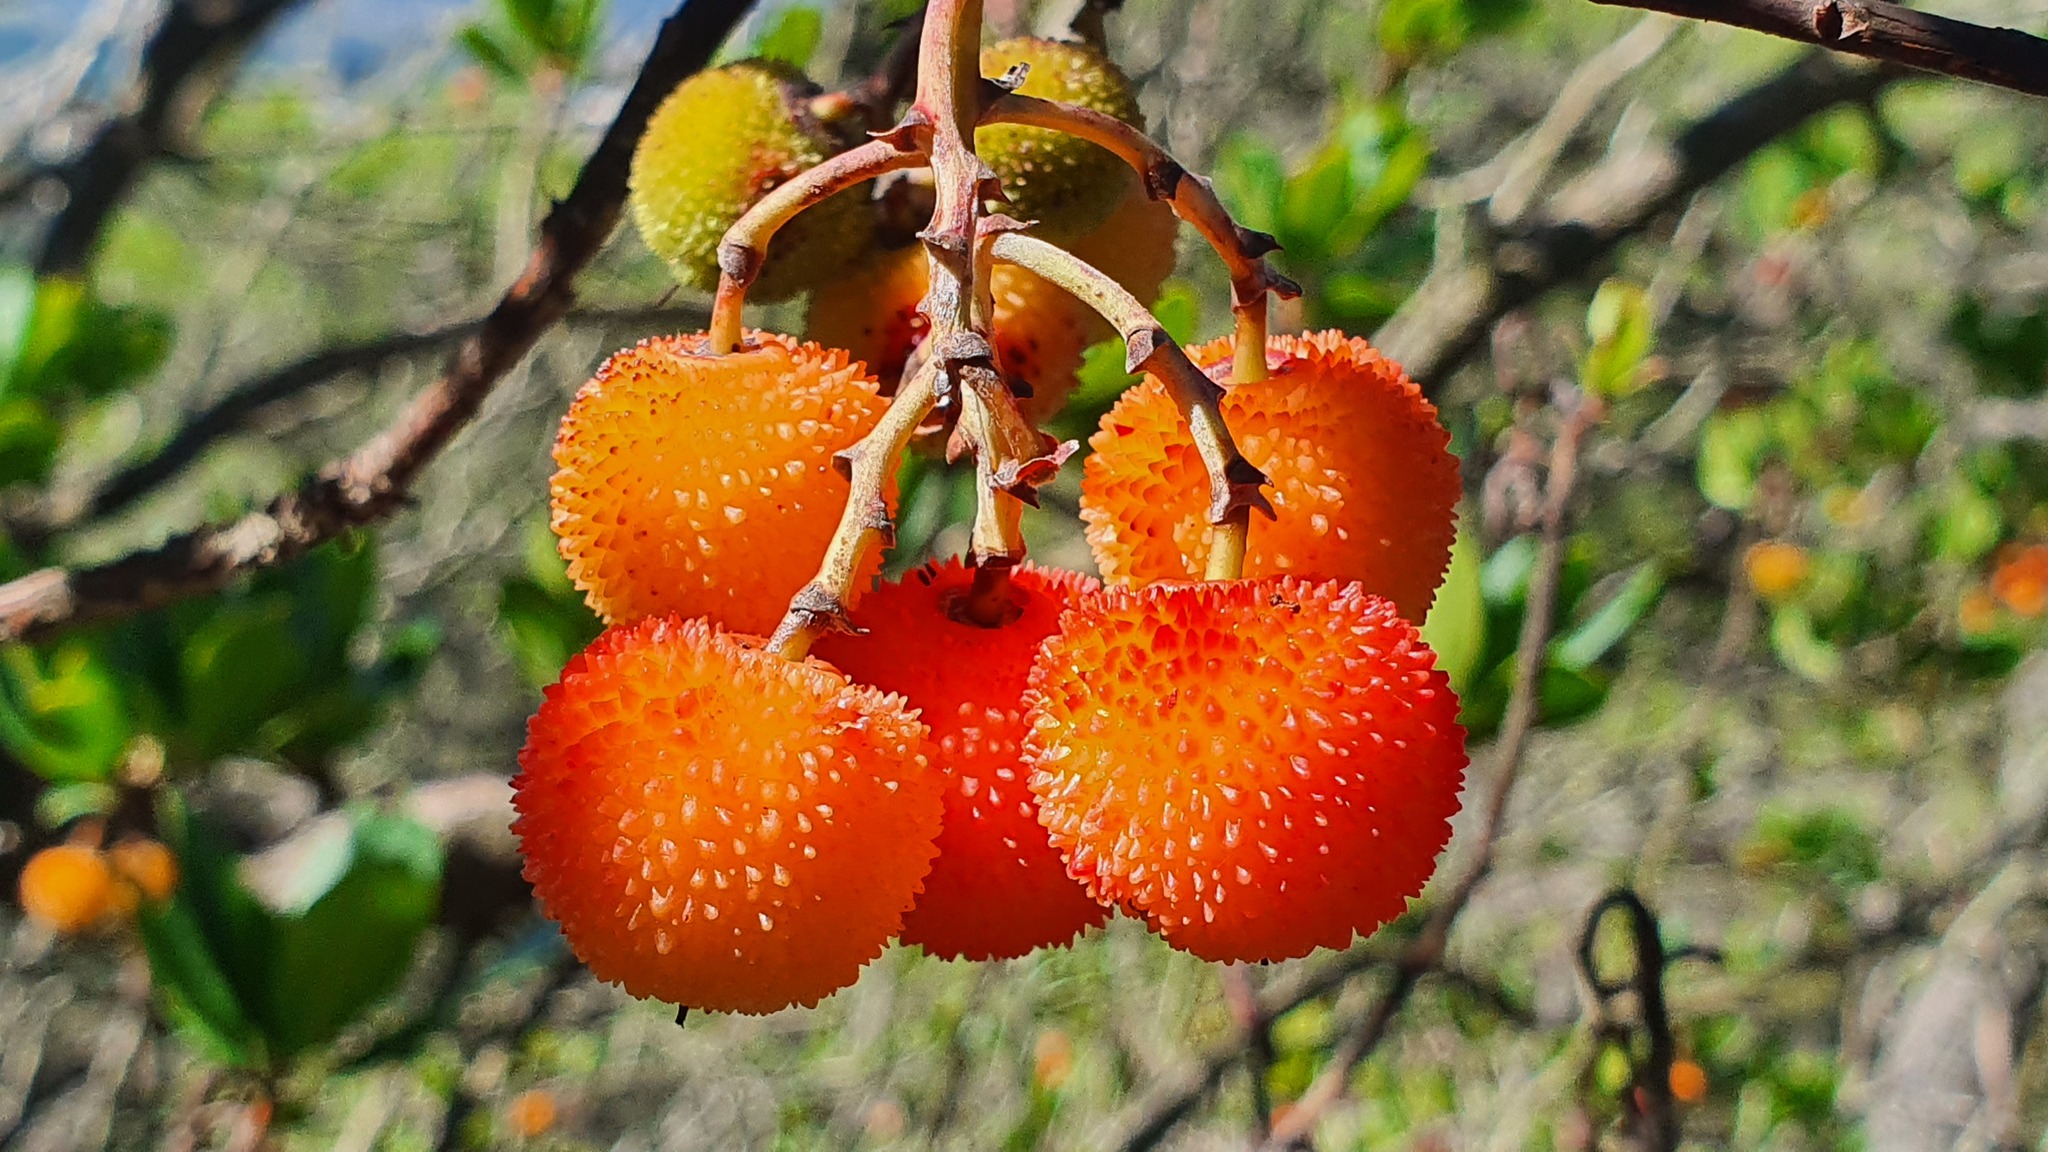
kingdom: Plantae
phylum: Tracheophyta
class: Magnoliopsida
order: Ericales
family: Ericaceae
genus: Arbutus
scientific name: Arbutus unedo
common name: Strawberry-tree
